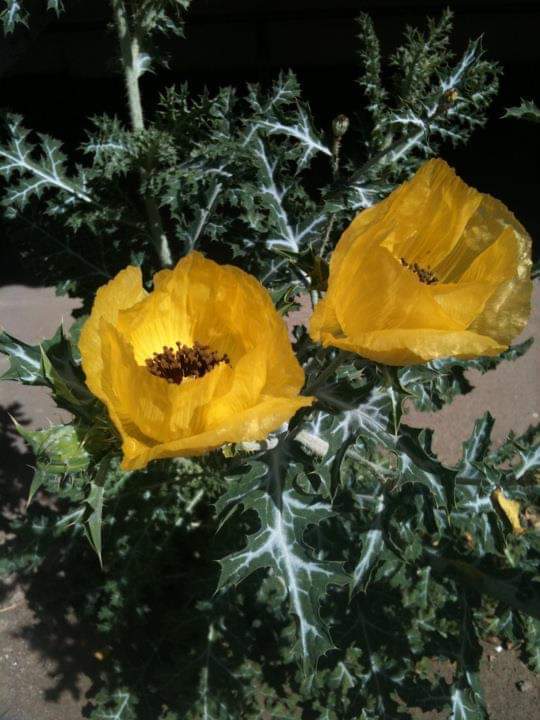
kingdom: Plantae
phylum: Tracheophyta
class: Magnoliopsida
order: Ranunculales
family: Papaveraceae
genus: Argemone
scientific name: Argemone aenea
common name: Golden prickly-poppy
